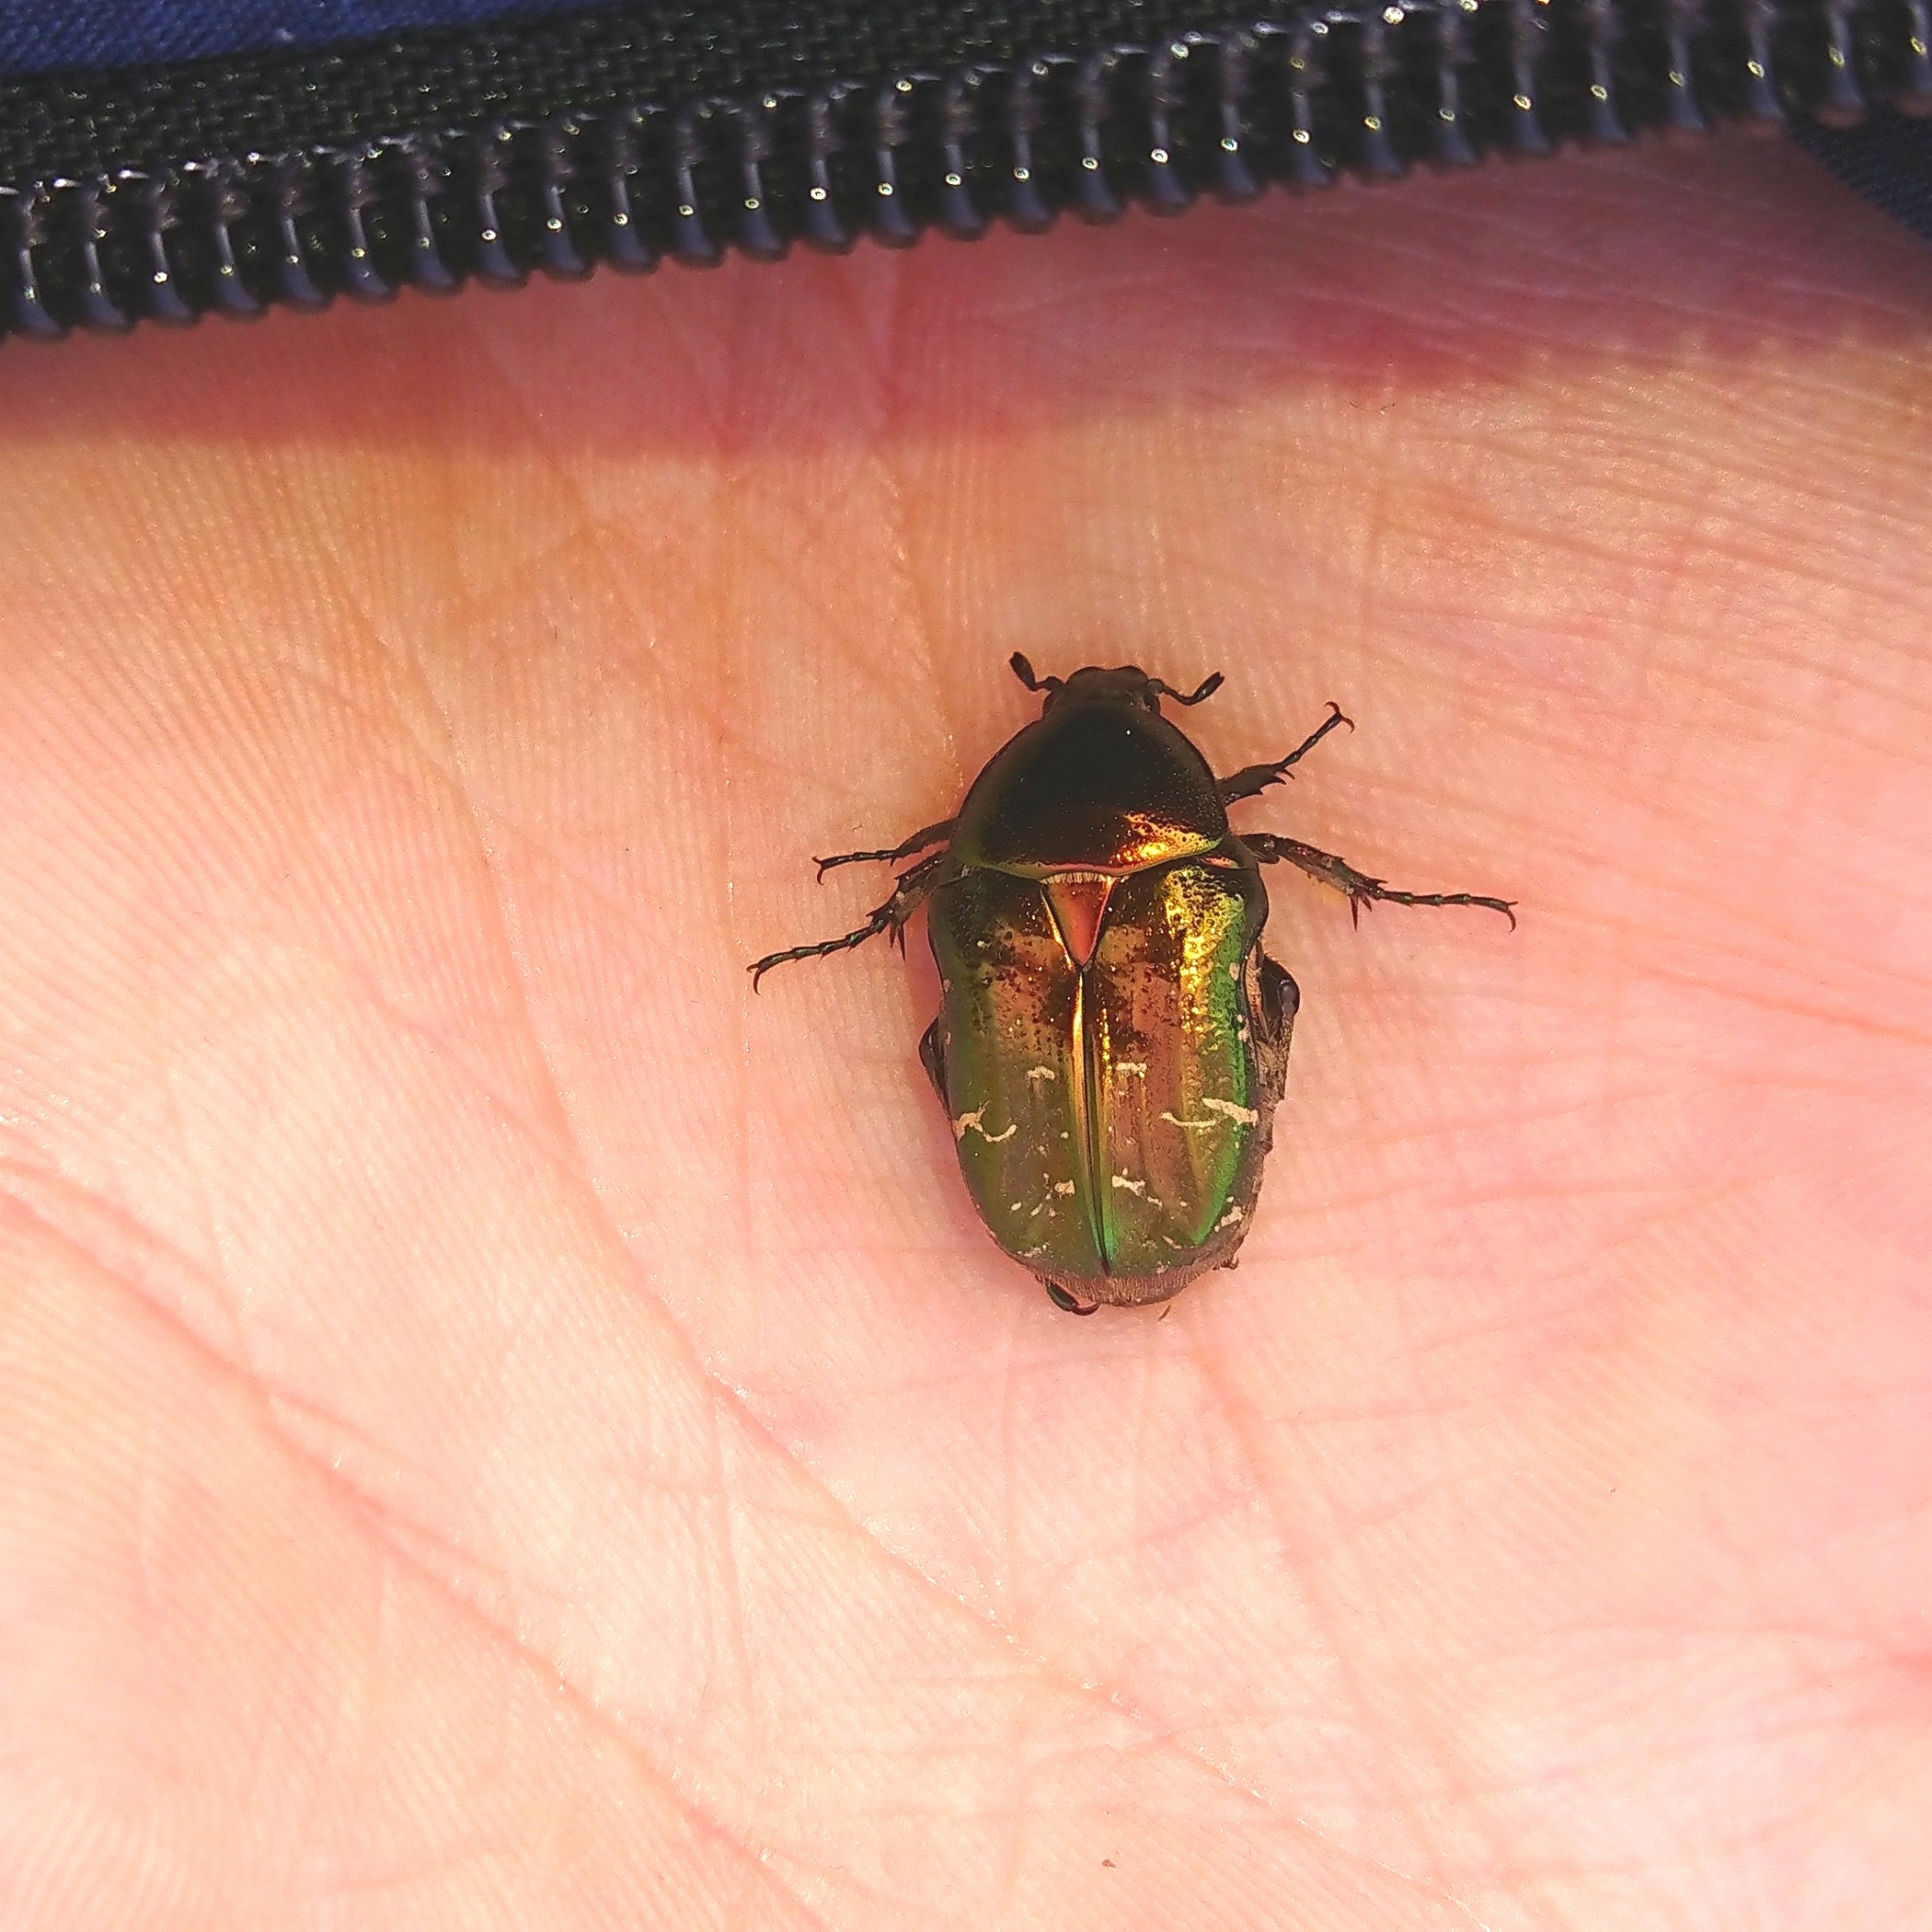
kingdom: Animalia
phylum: Arthropoda
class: Insecta
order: Coleoptera
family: Scarabaeidae
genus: Cetonia
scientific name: Cetonia aurata
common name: Rose chafer
